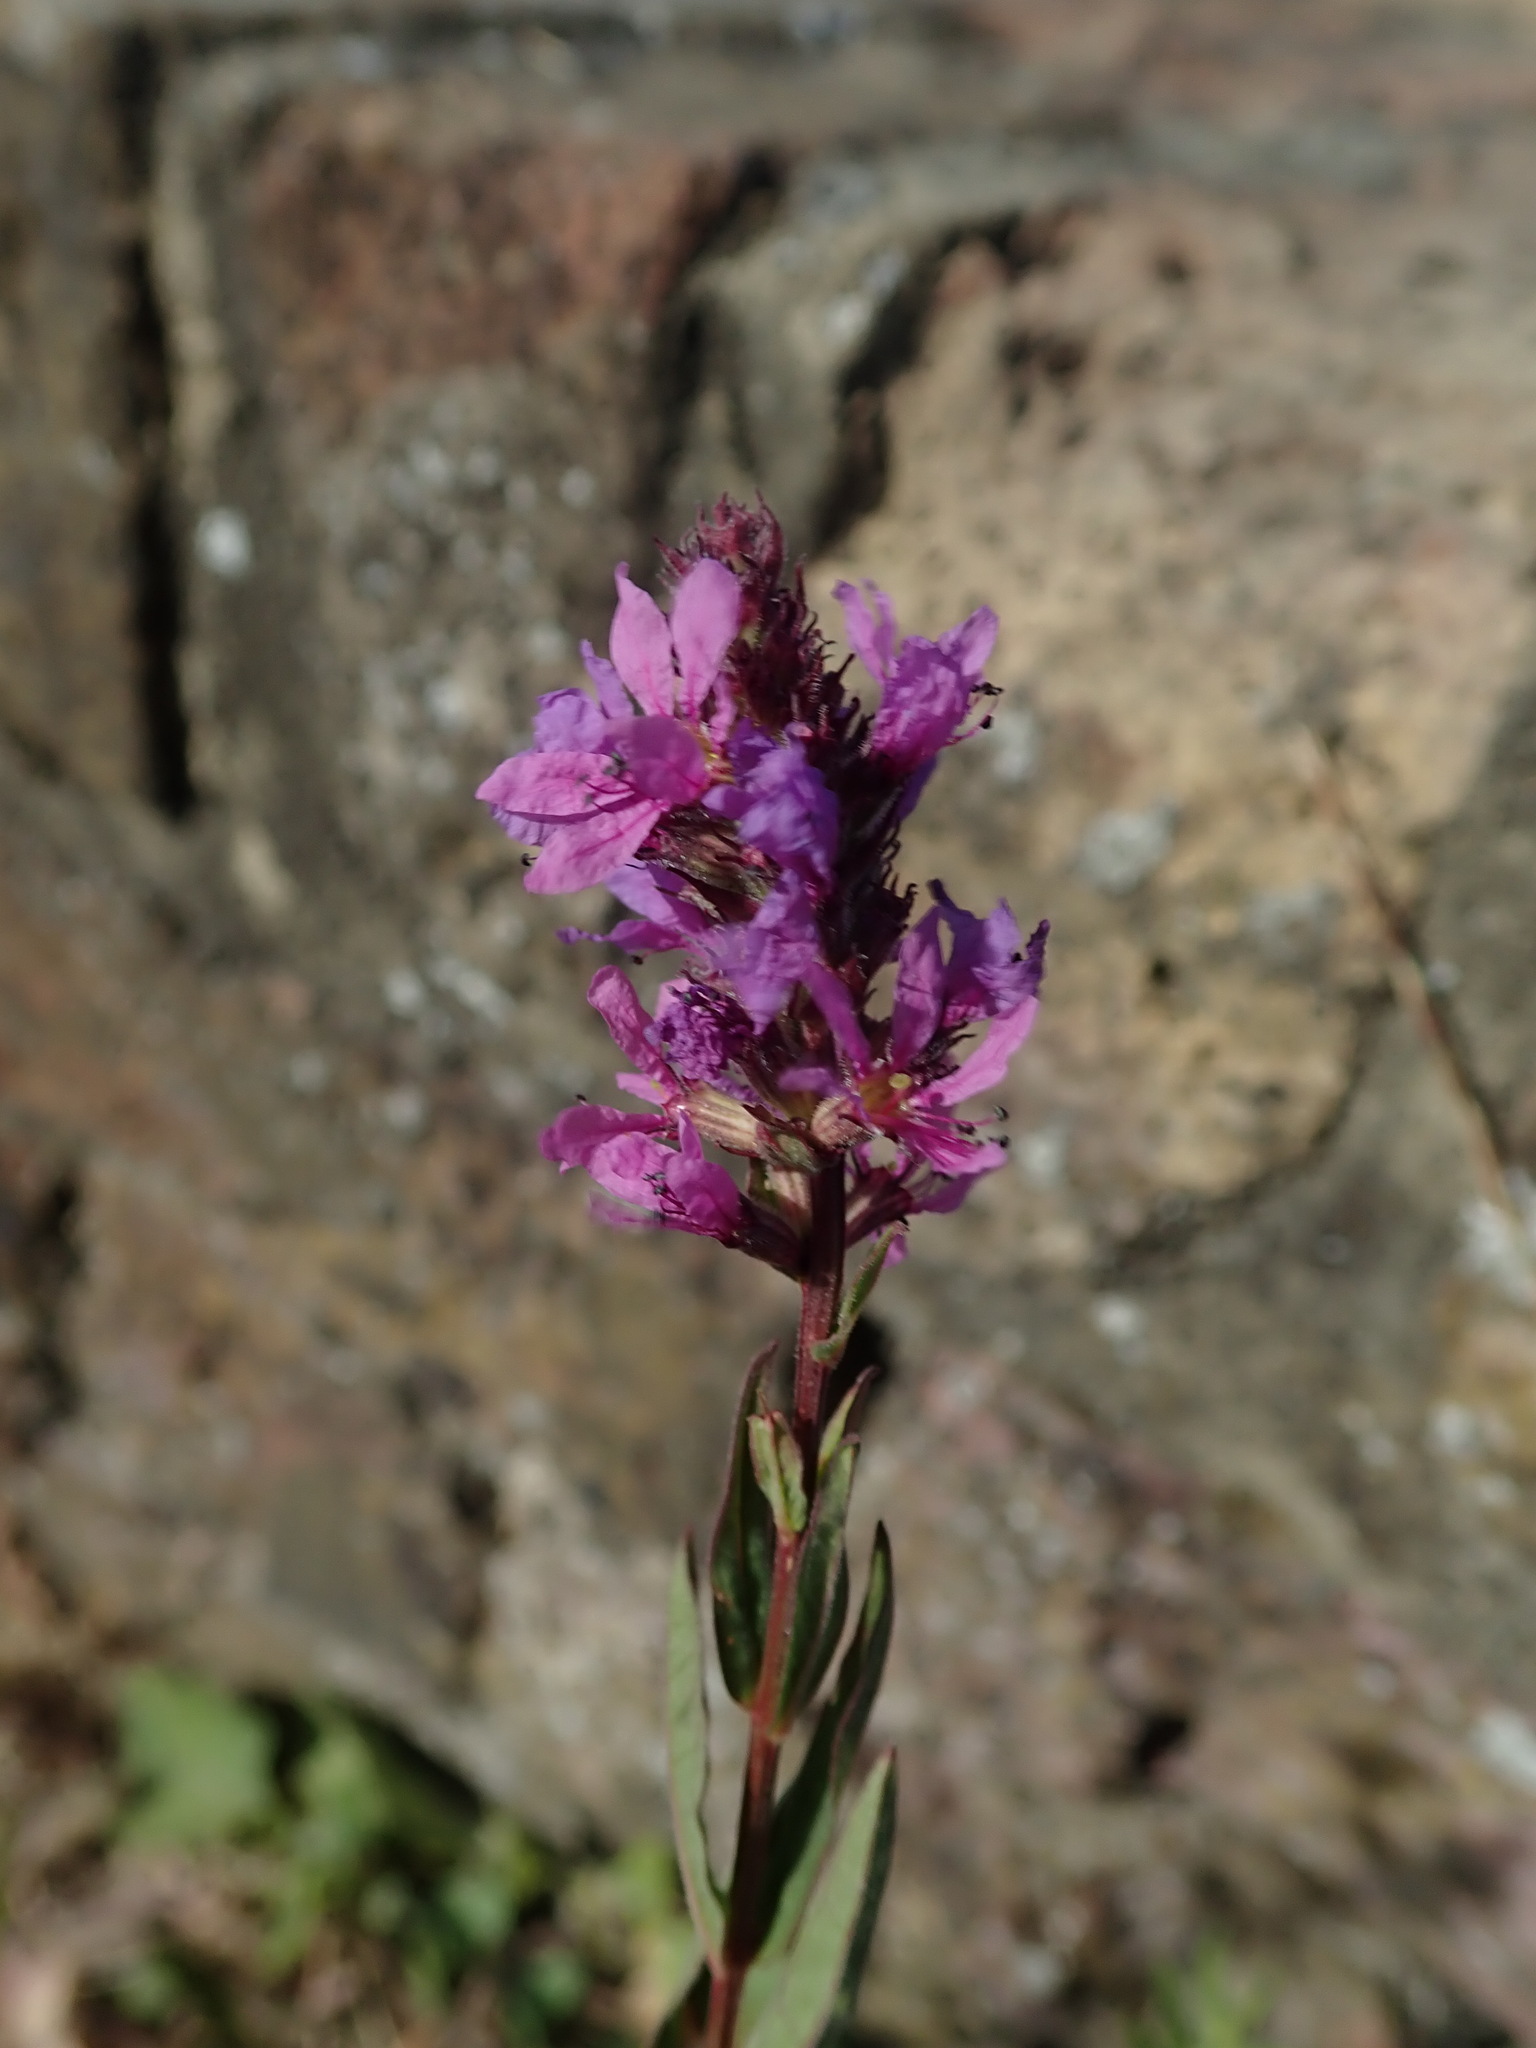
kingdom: Plantae
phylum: Tracheophyta
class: Magnoliopsida
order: Myrtales
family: Lythraceae
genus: Lythrum
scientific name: Lythrum salicaria
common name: Purple loosestrife
